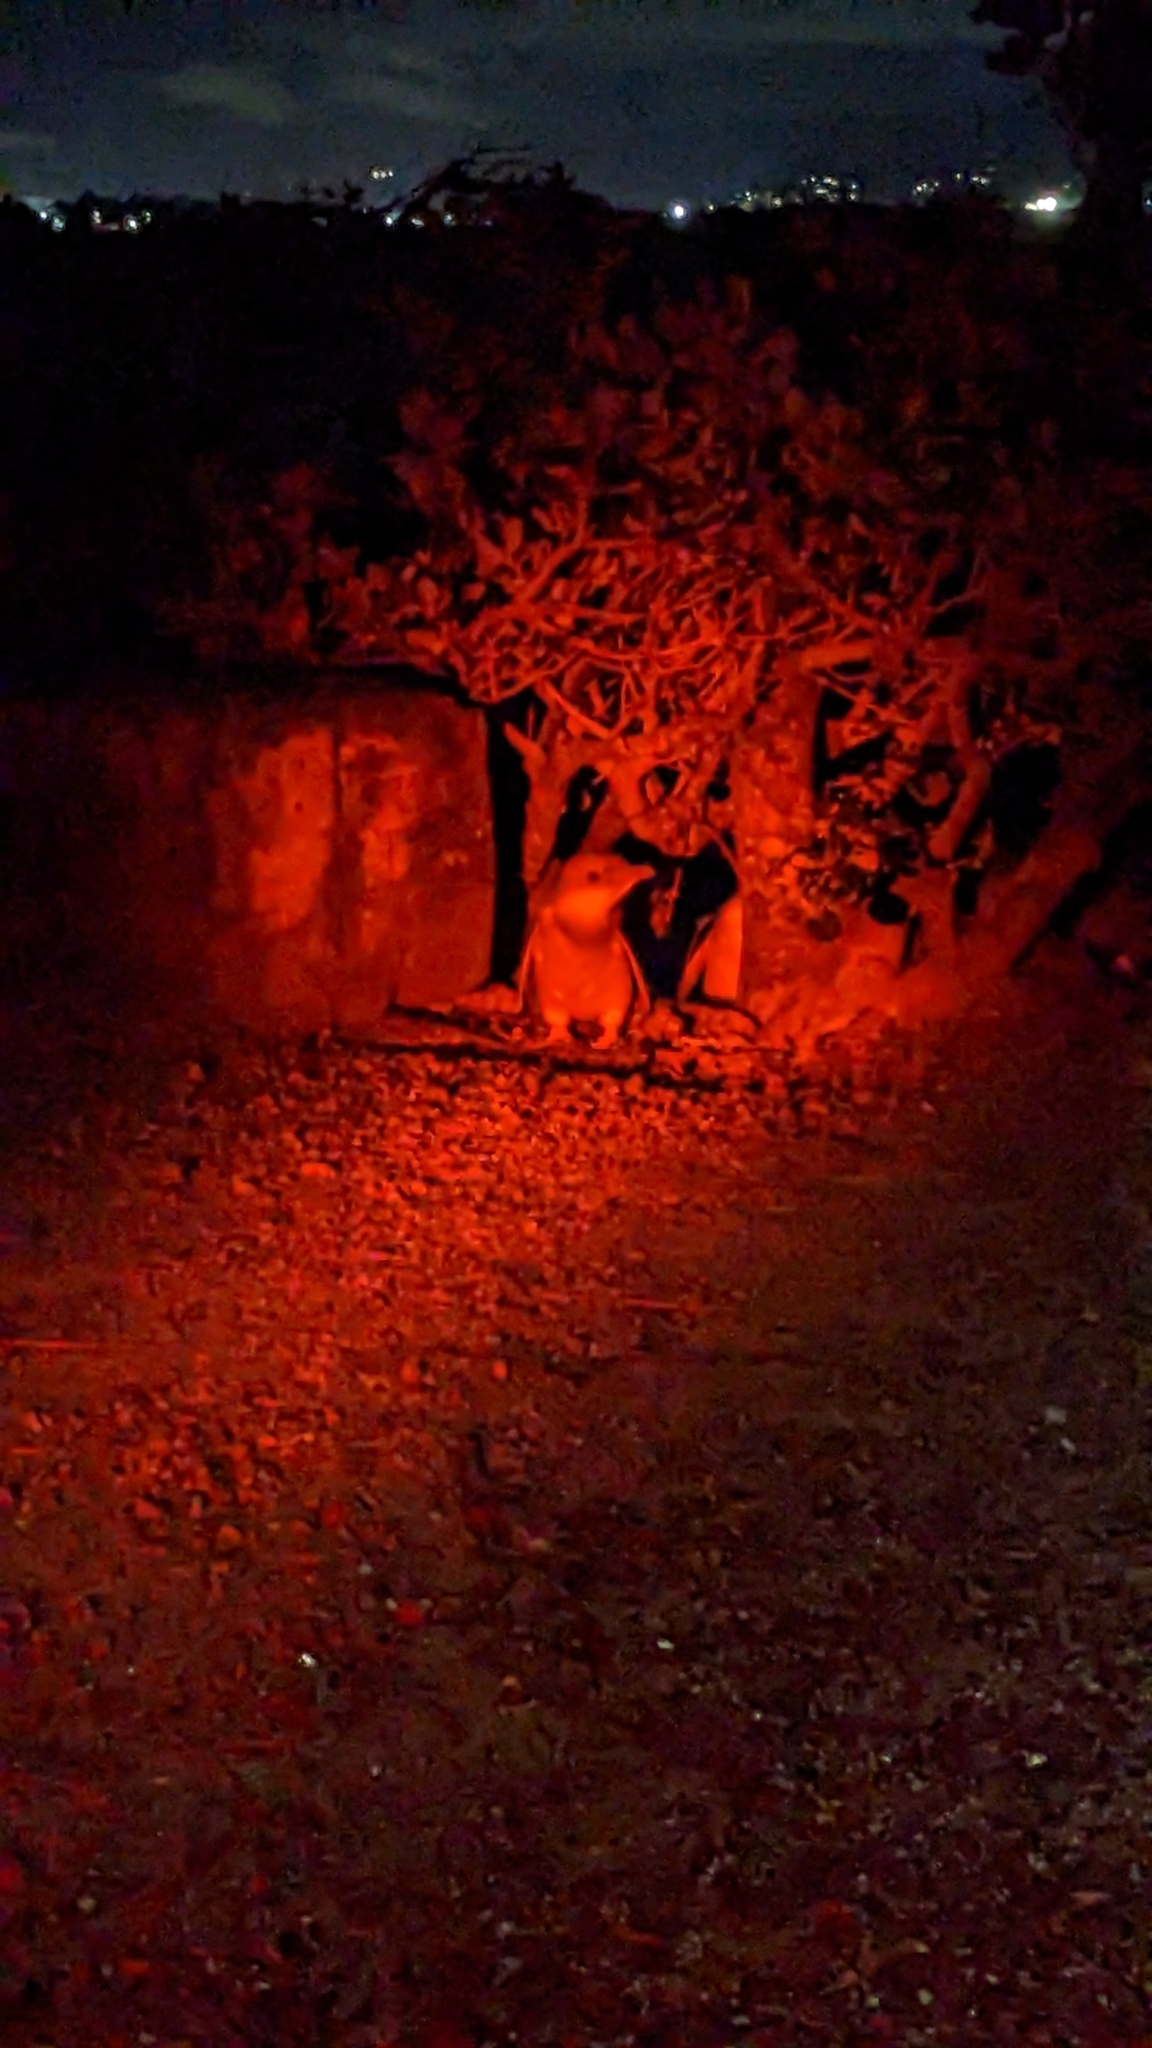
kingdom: Animalia
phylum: Chordata
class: Aves
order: Sphenisciformes
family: Spheniscidae
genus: Eudyptula
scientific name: Eudyptula minor
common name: Little penguin
